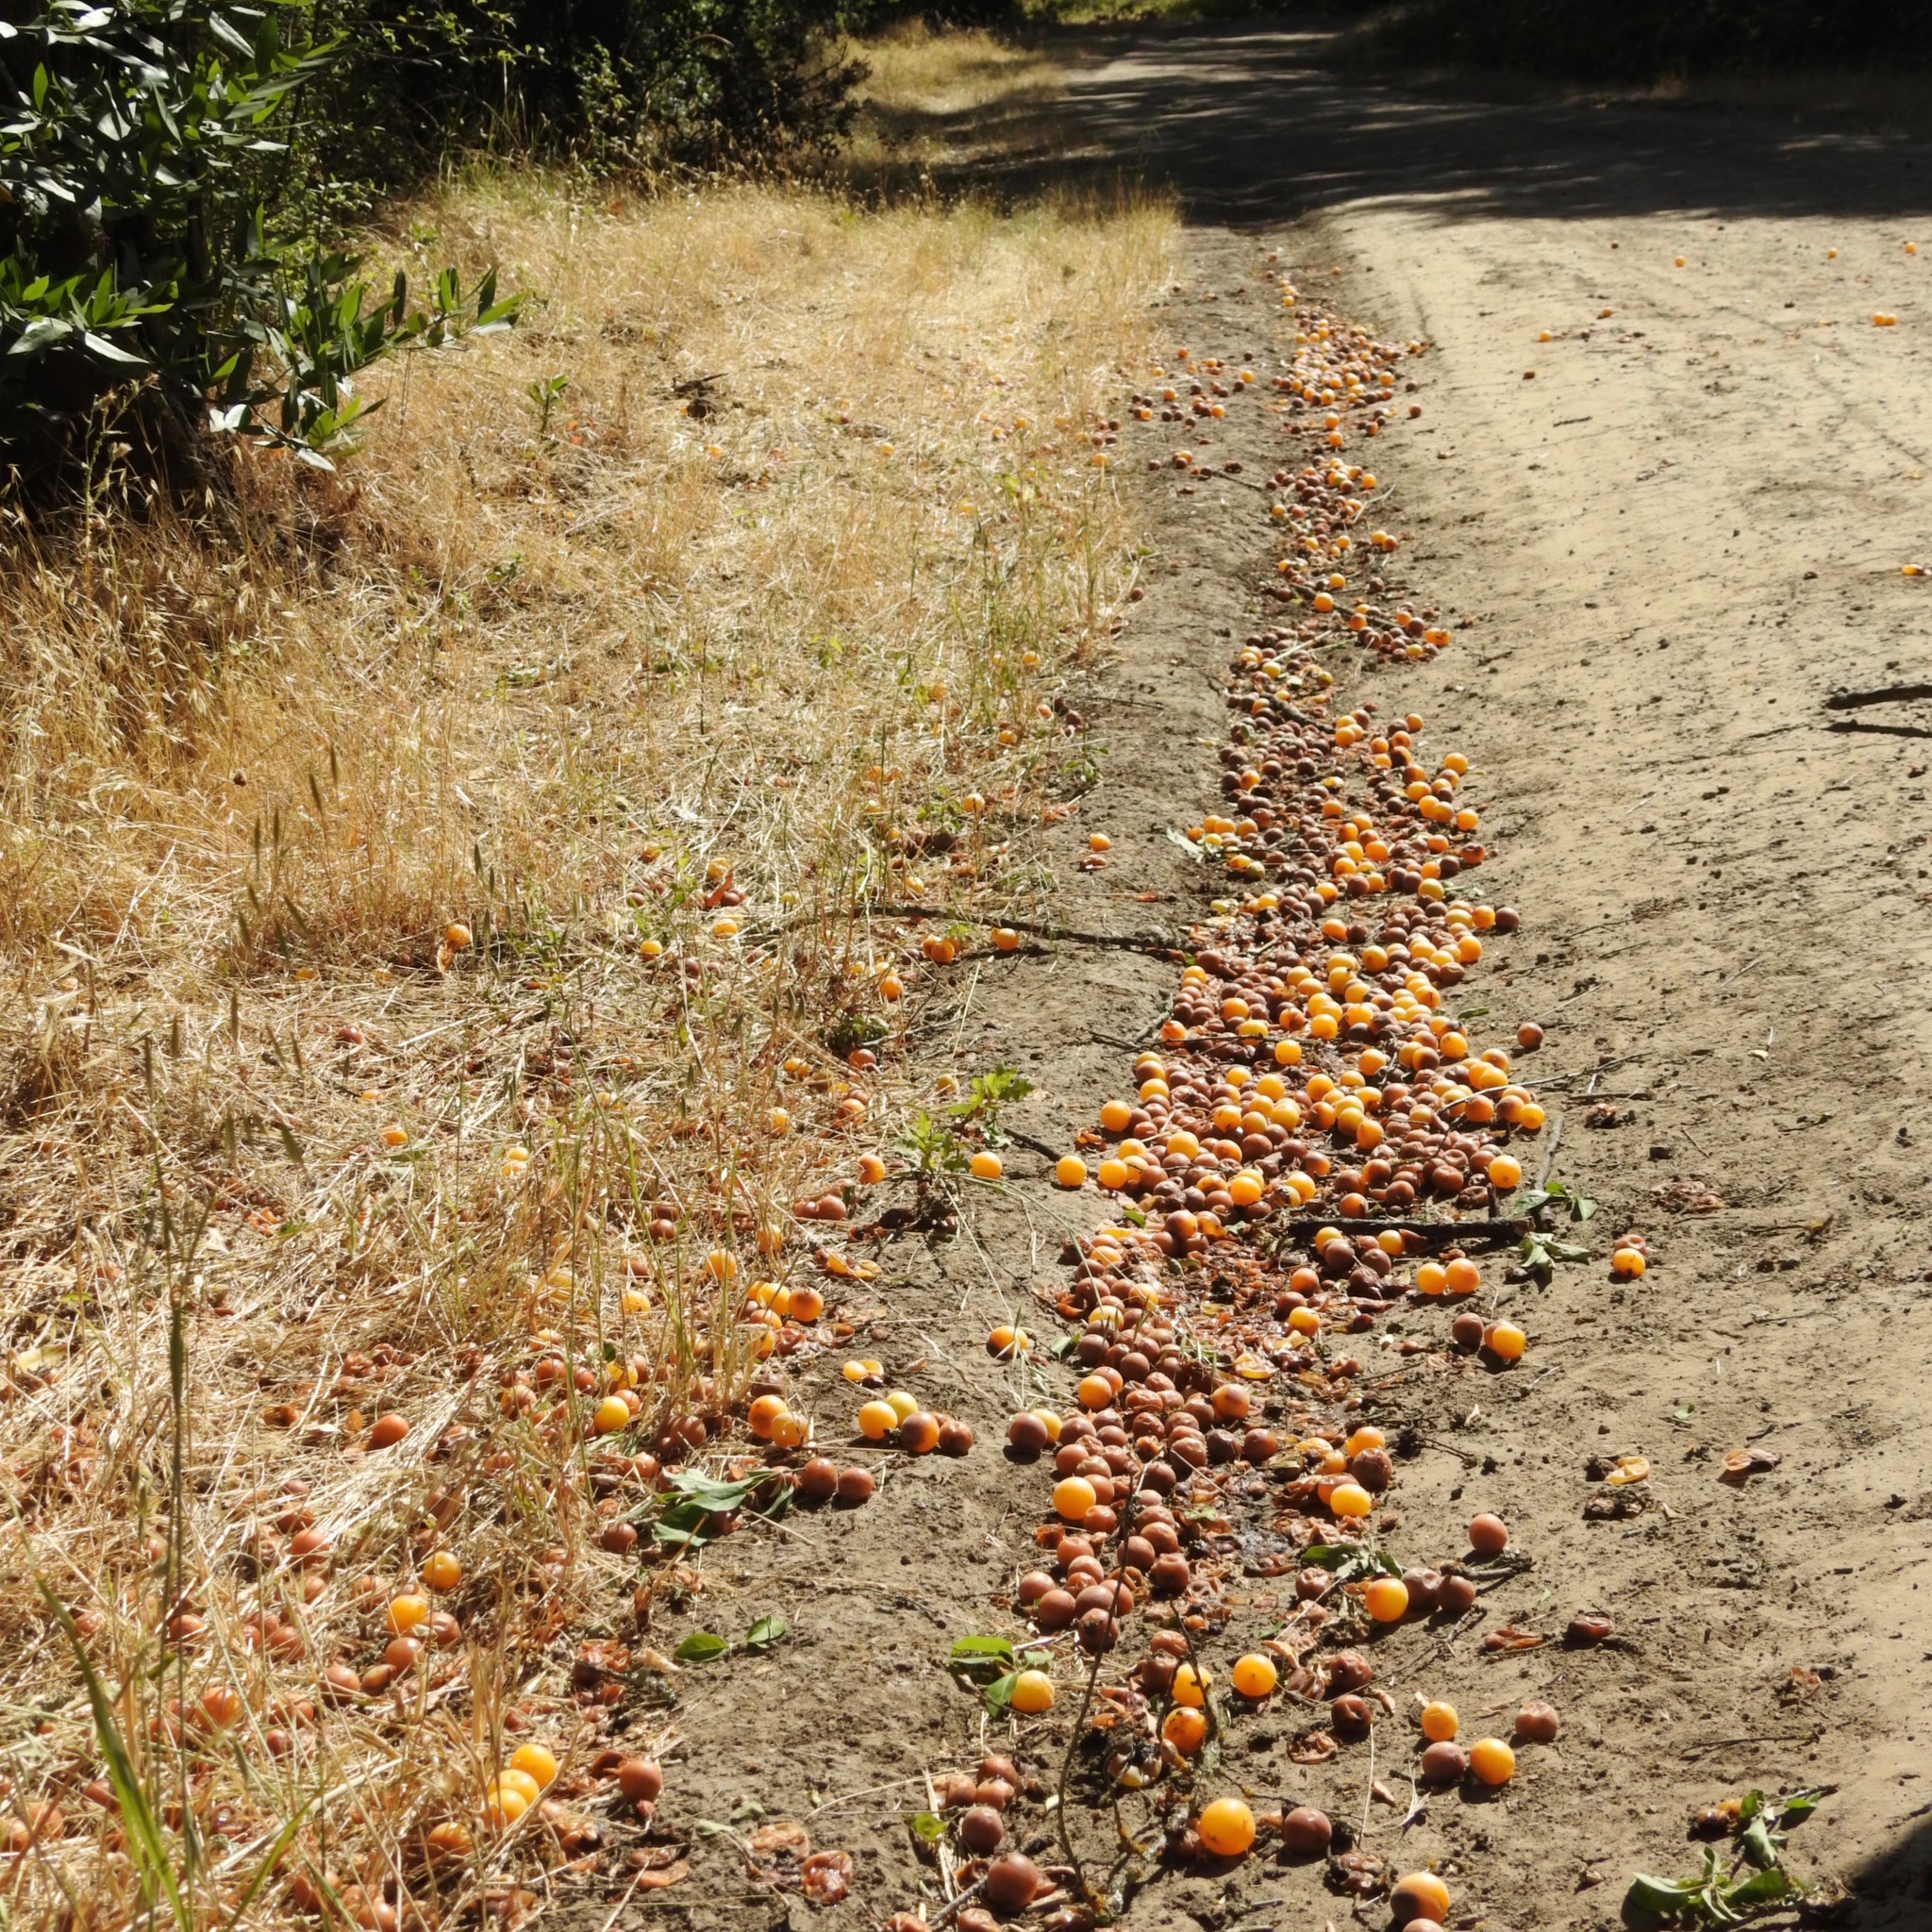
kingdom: Plantae
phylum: Tracheophyta
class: Magnoliopsida
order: Rosales
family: Rosaceae
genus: Prunus
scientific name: Prunus cerasifera
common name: Cherry plum
